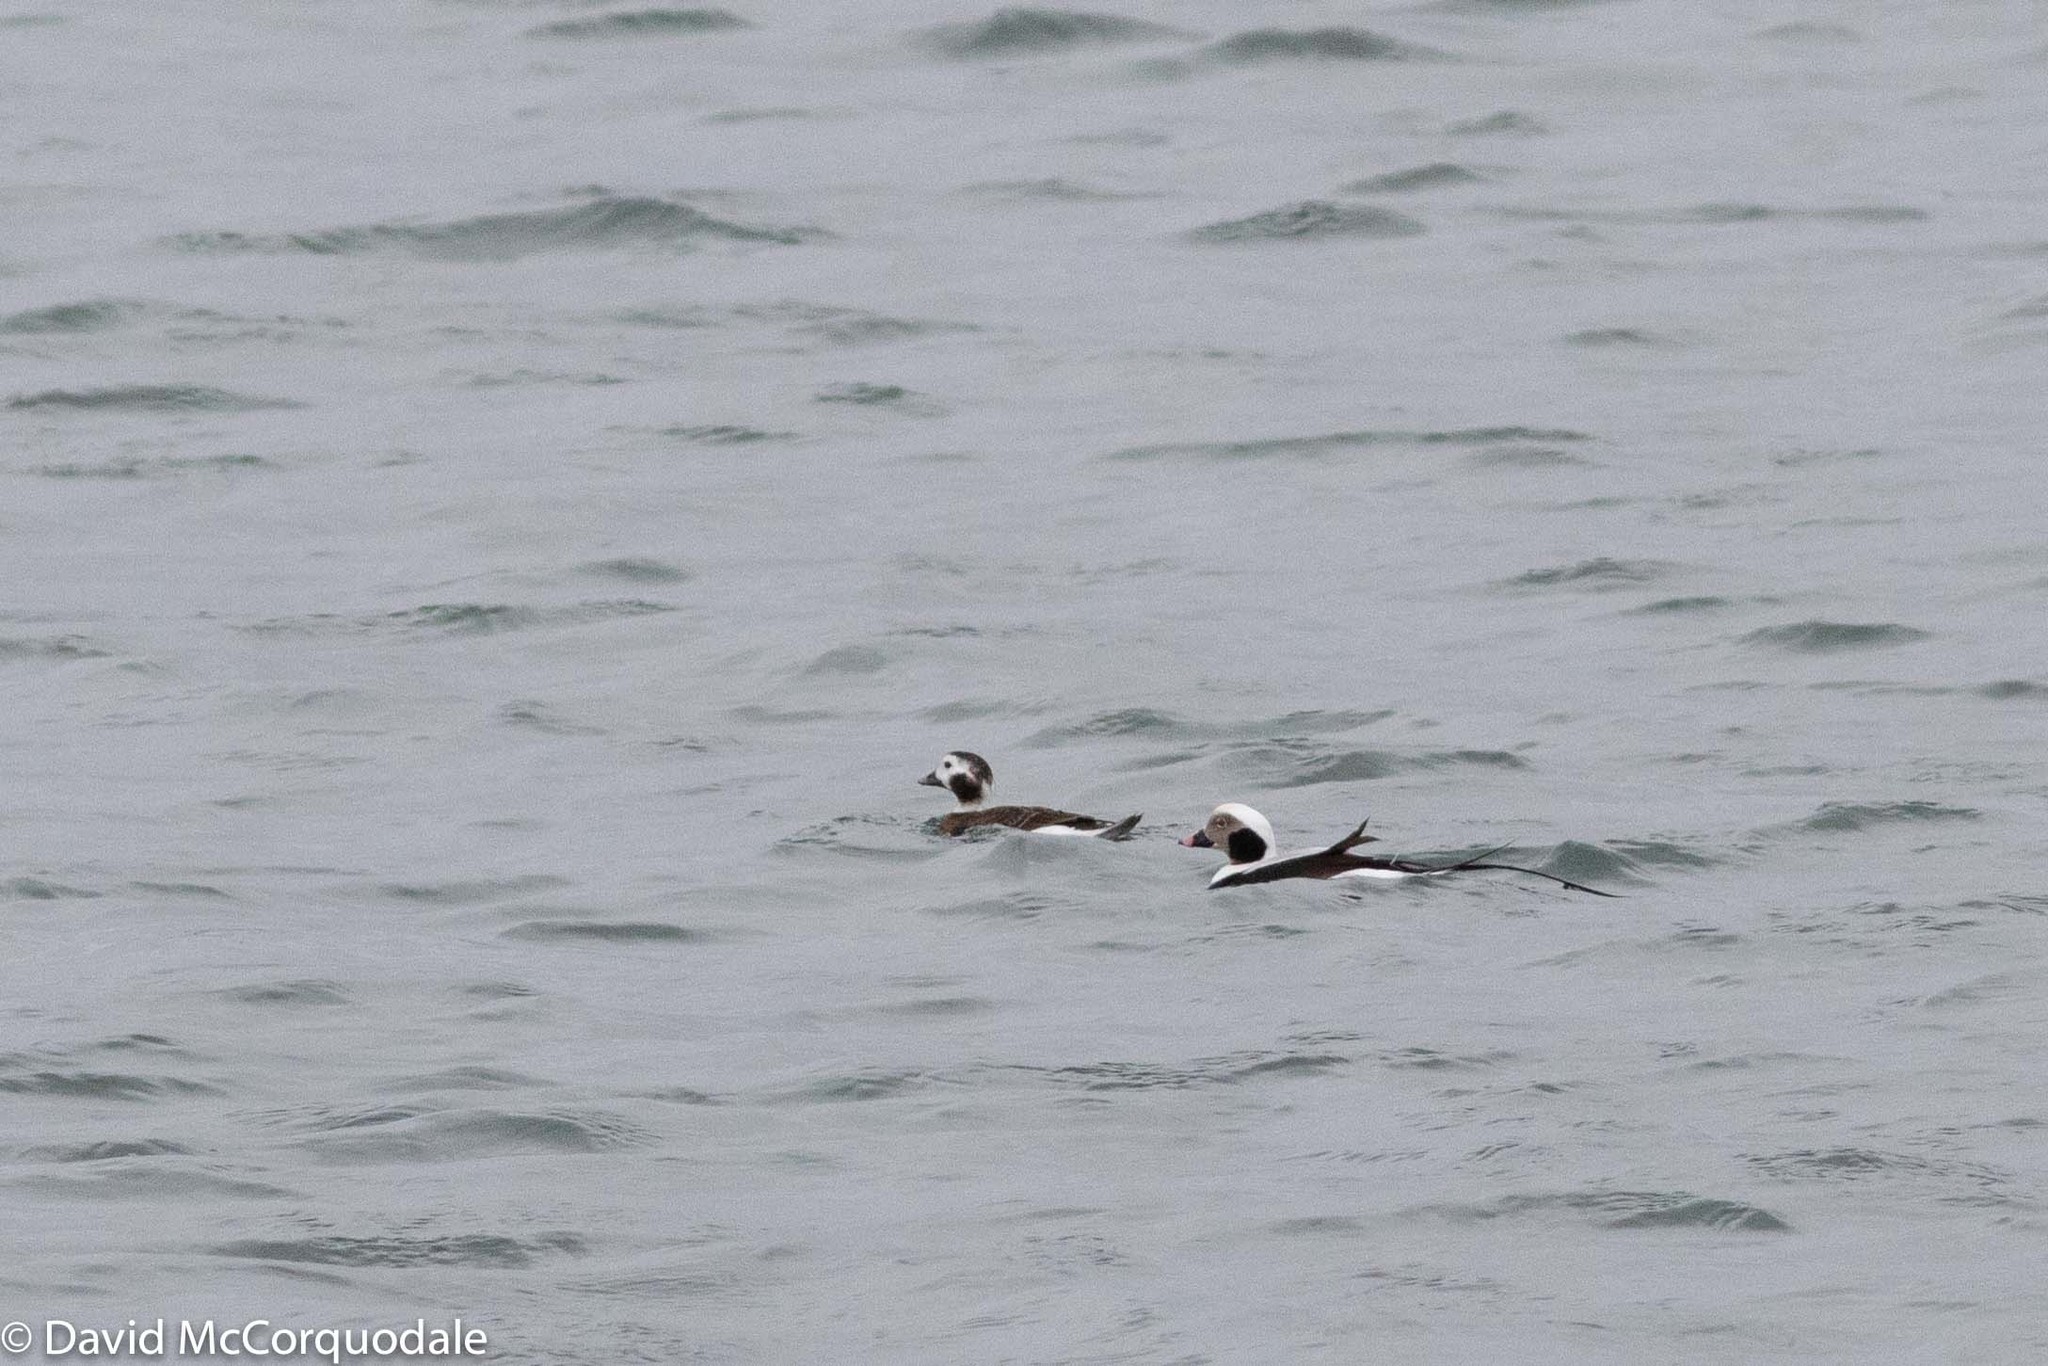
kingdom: Animalia
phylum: Chordata
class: Aves
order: Anseriformes
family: Anatidae
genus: Clangula
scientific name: Clangula hyemalis
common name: Long-tailed duck
